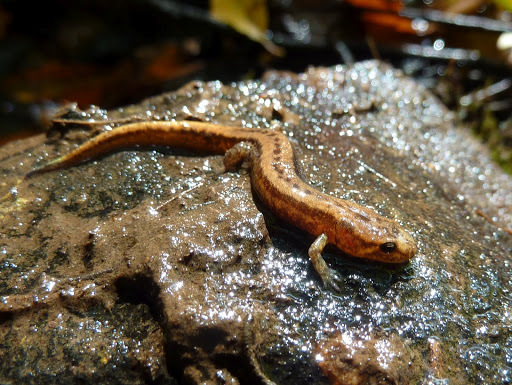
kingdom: Animalia
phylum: Chordata
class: Amphibia
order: Caudata
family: Plethodontidae
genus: Desmognathus
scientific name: Desmognathus ochrophaeus
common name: Allegheny mountain dusky salamander
